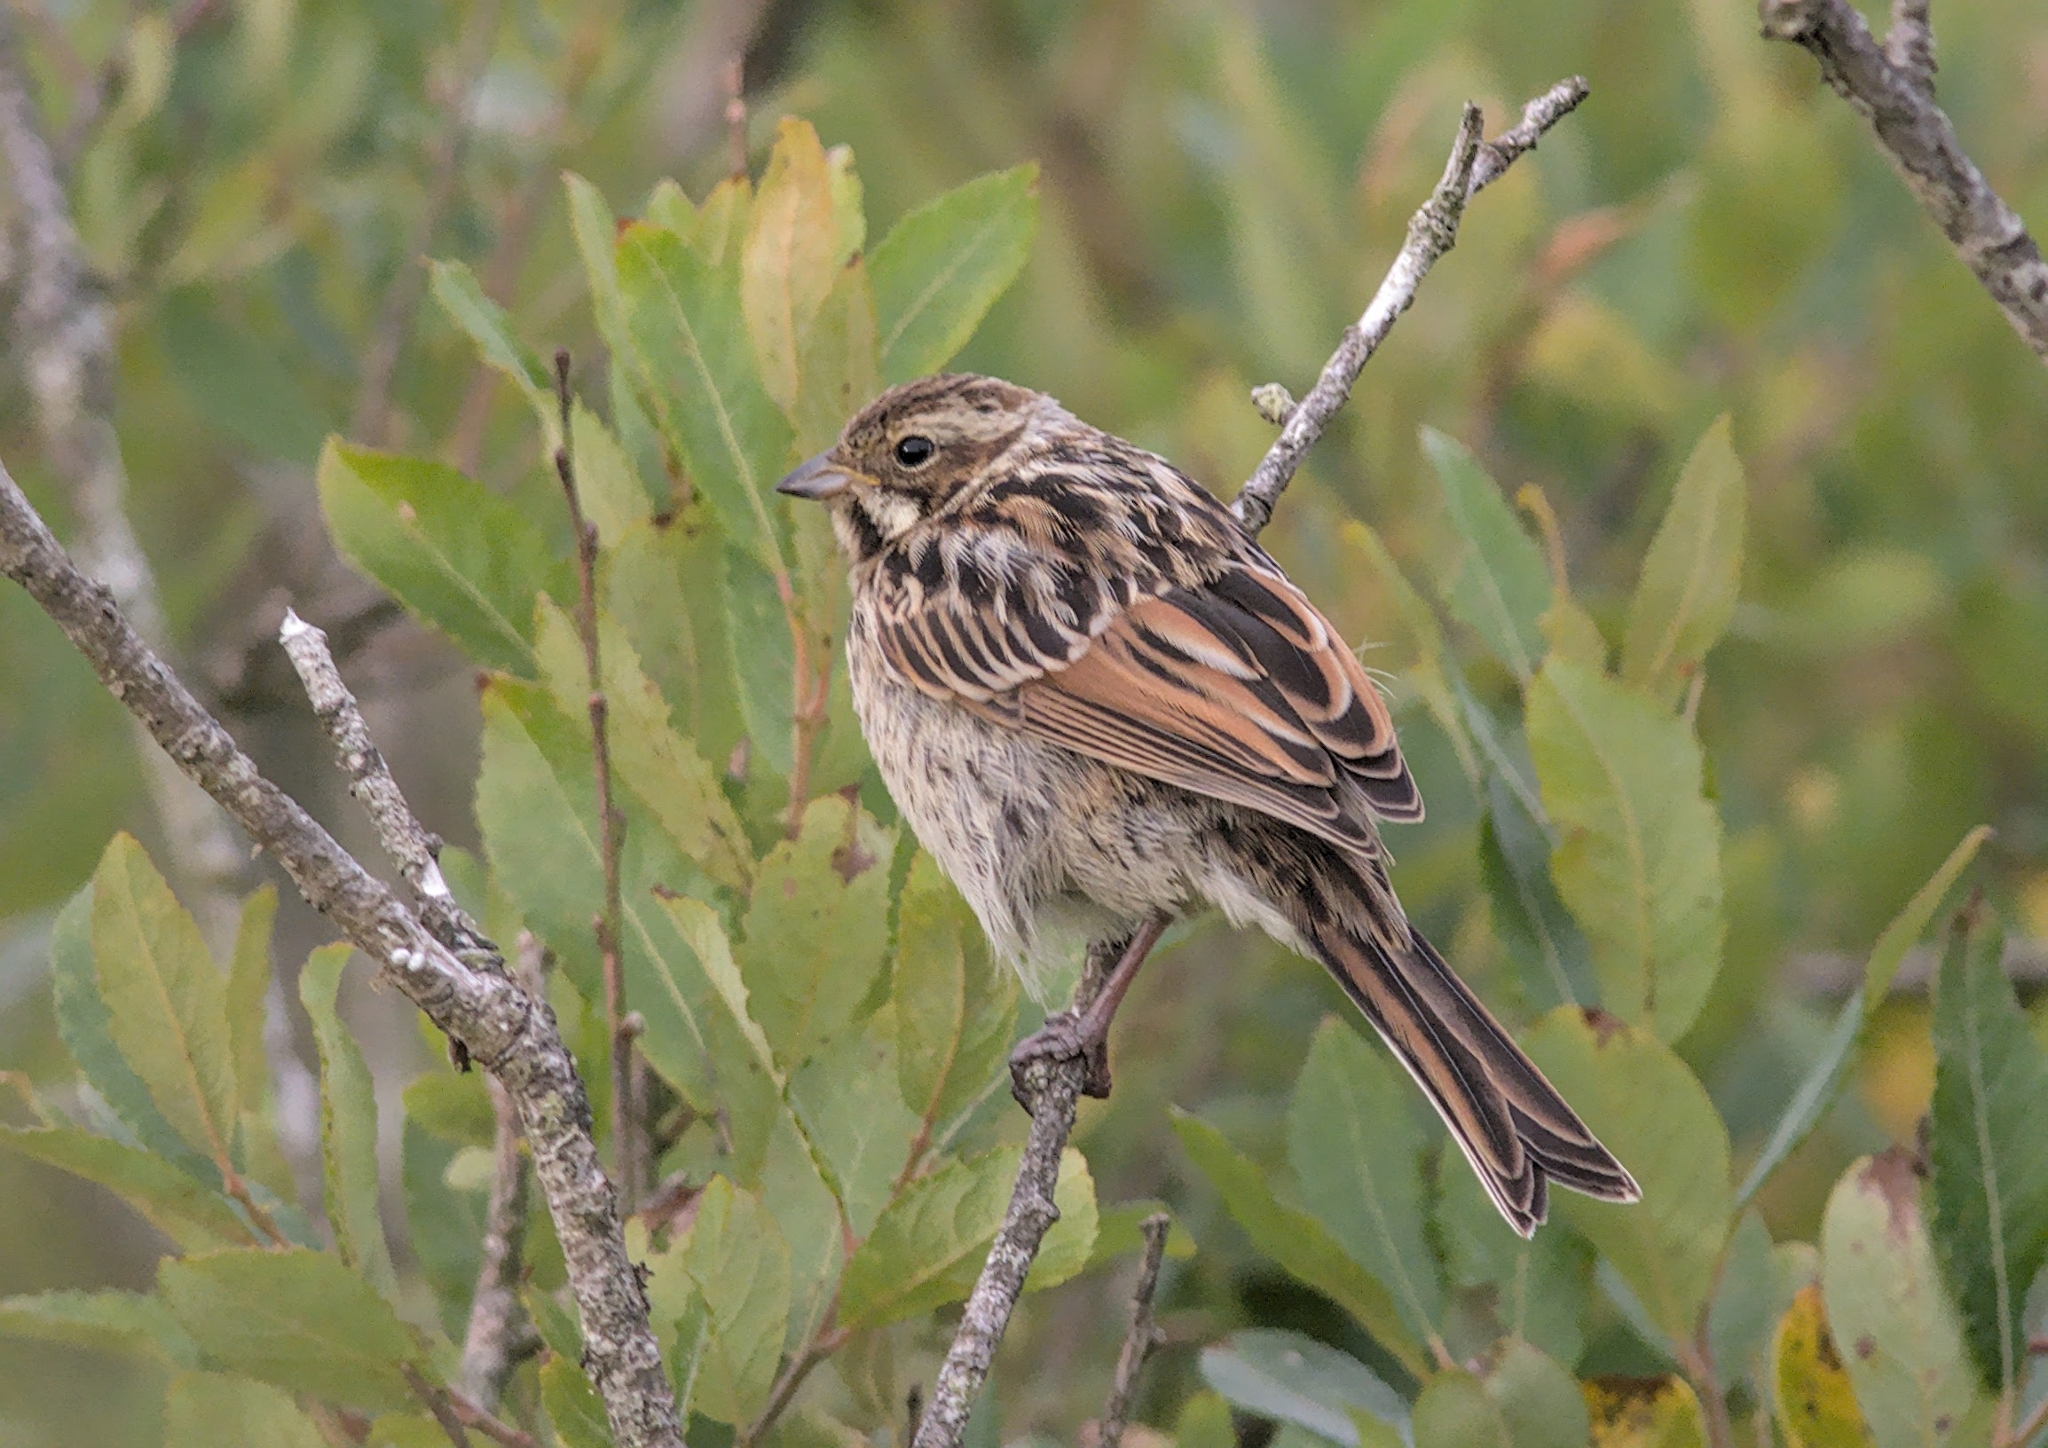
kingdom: Animalia
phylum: Chordata
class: Aves
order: Passeriformes
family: Emberizidae
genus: Emberiza
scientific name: Emberiza schoeniclus
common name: Reed bunting
